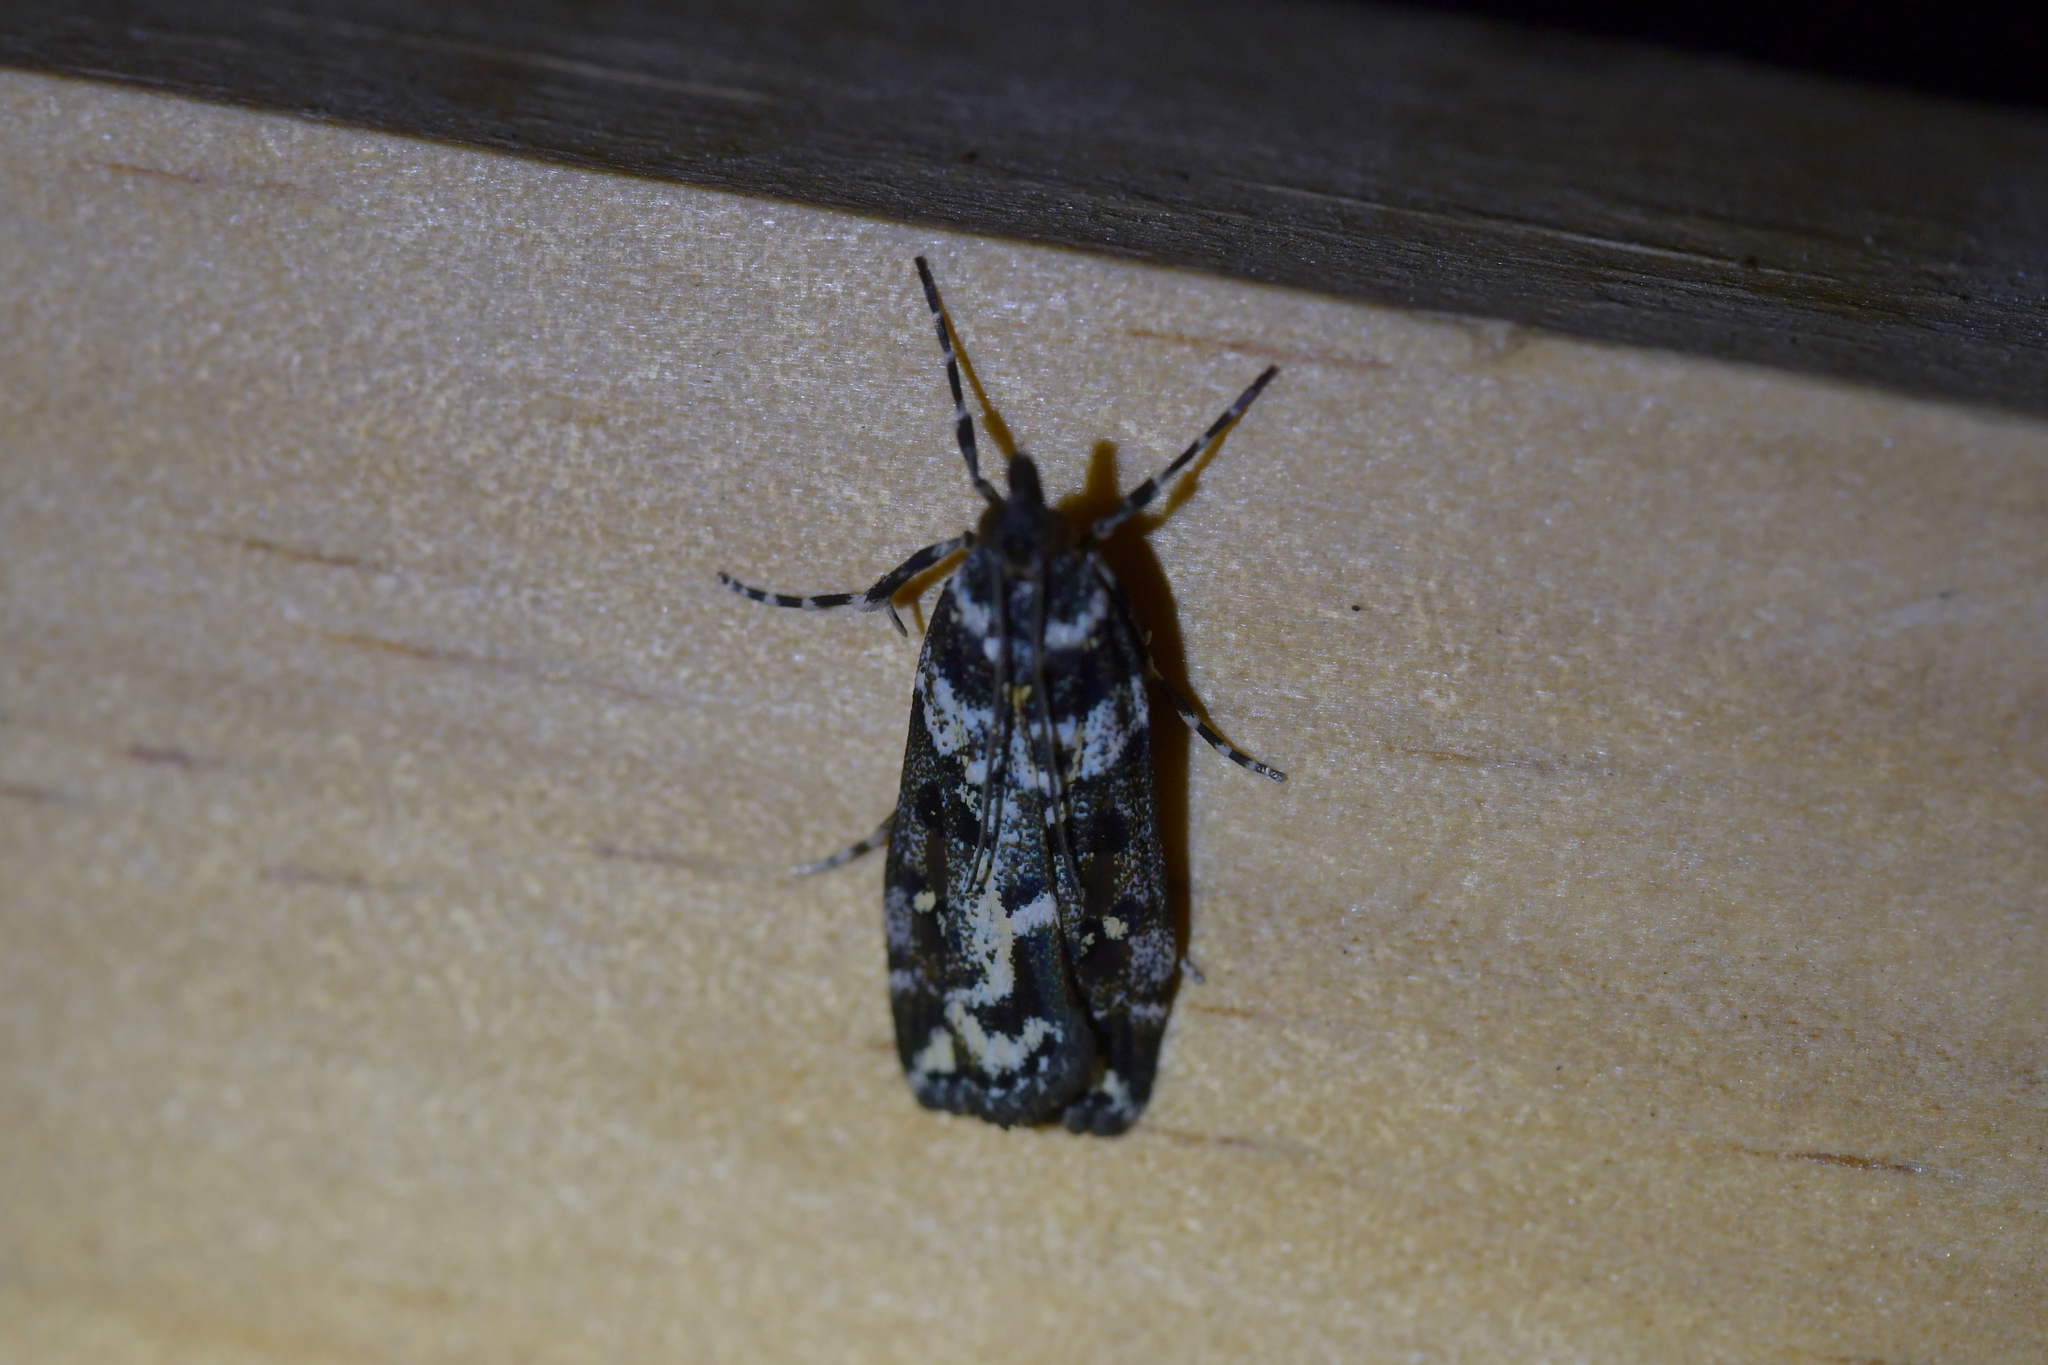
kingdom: Animalia
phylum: Arthropoda
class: Insecta
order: Lepidoptera
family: Crambidae
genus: Eudonia
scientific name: Eudonia diphtheralis
